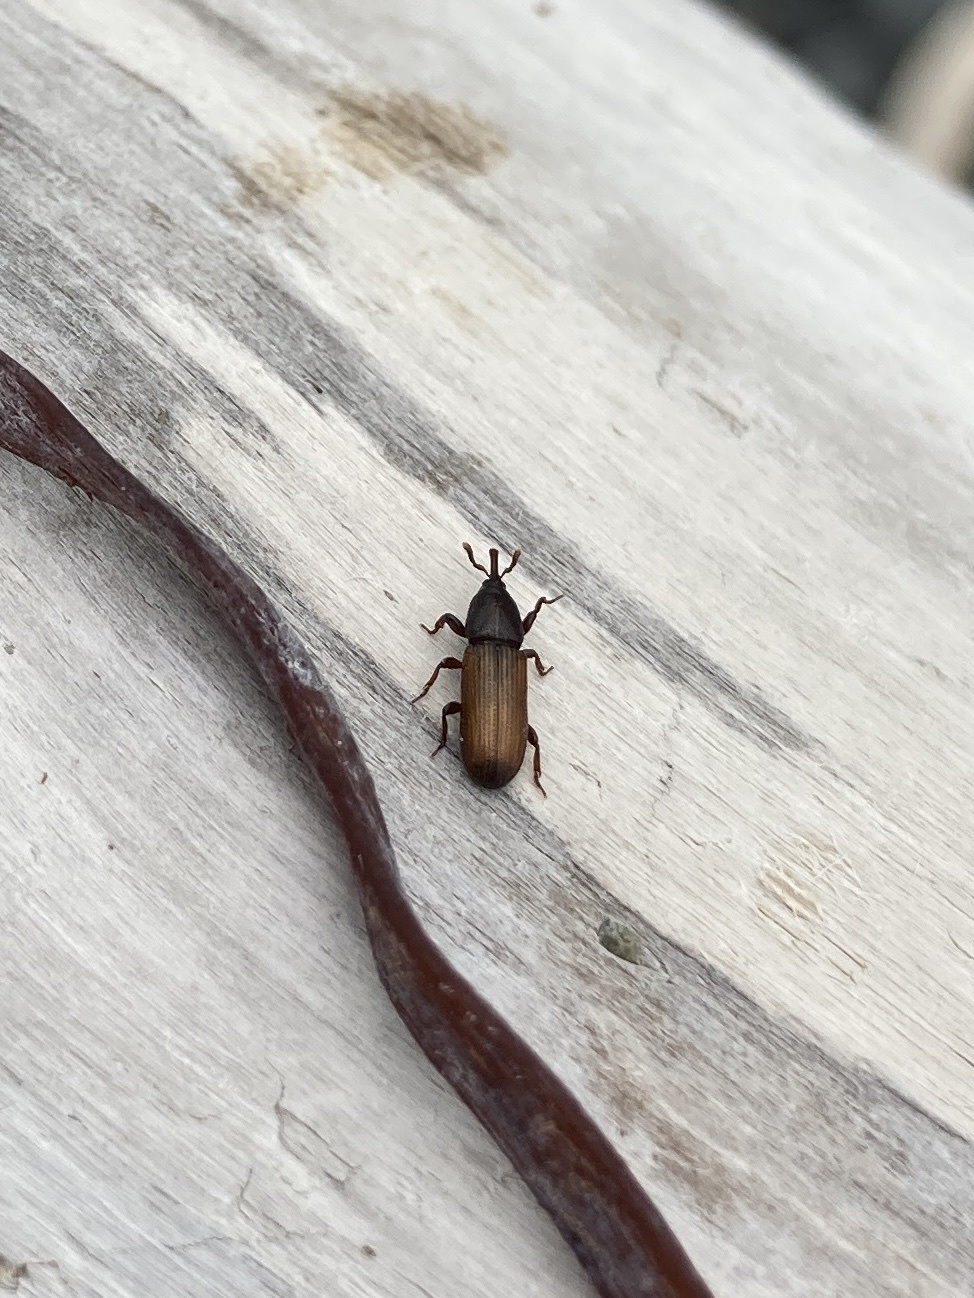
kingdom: Animalia
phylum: Arthropoda
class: Insecta
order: Coleoptera
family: Curculionidae
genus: Mesites
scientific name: Mesites pallidipennis
